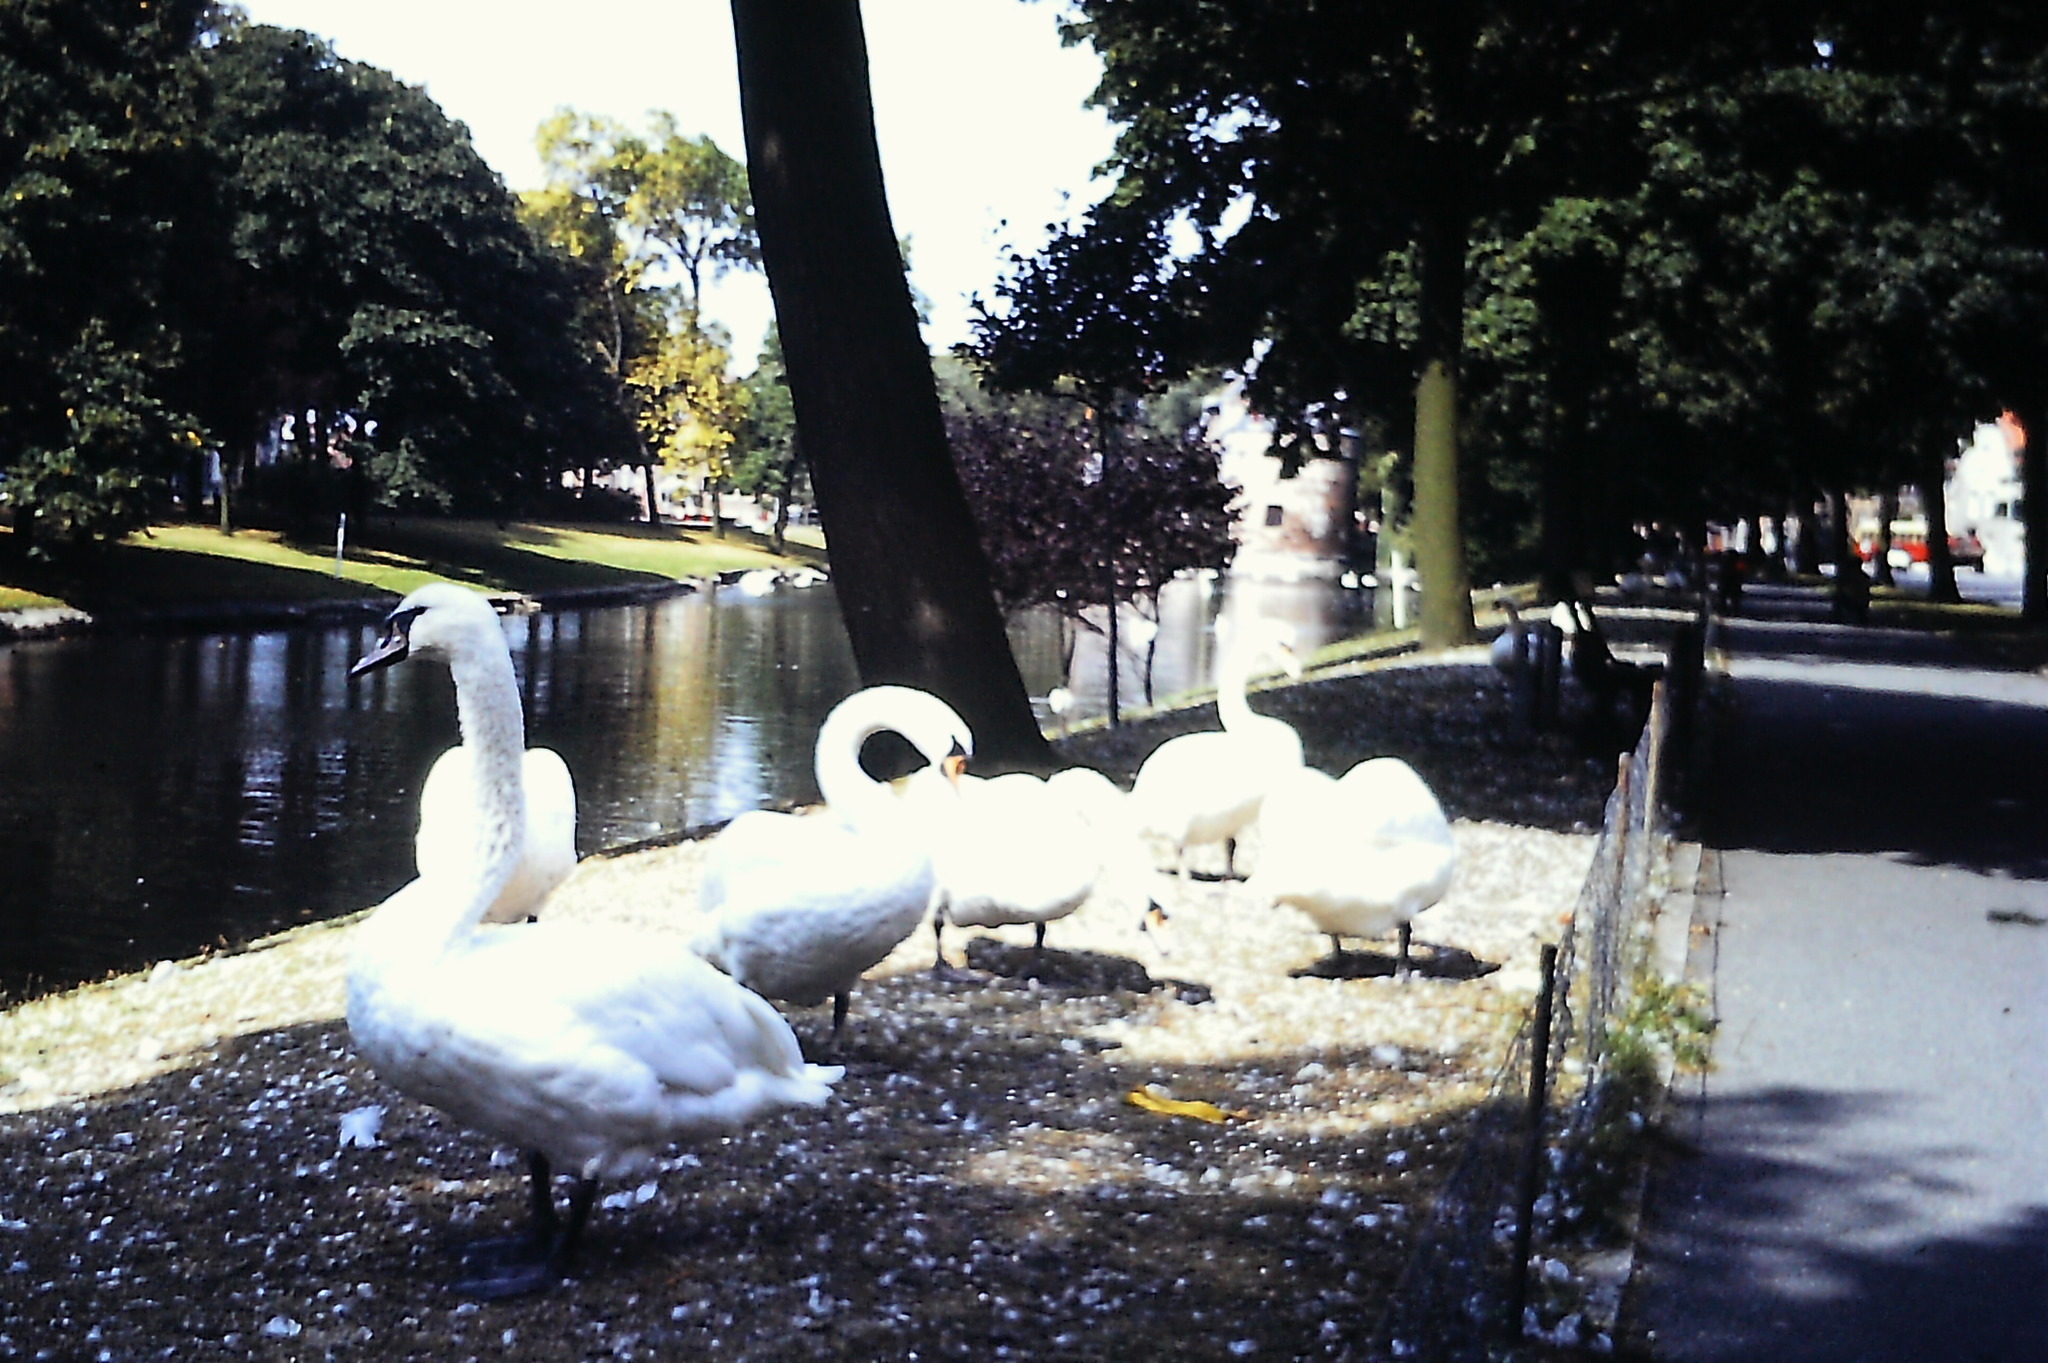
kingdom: Animalia
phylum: Chordata
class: Aves
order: Anseriformes
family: Anatidae
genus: Cygnus
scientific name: Cygnus olor
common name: Mute swan
